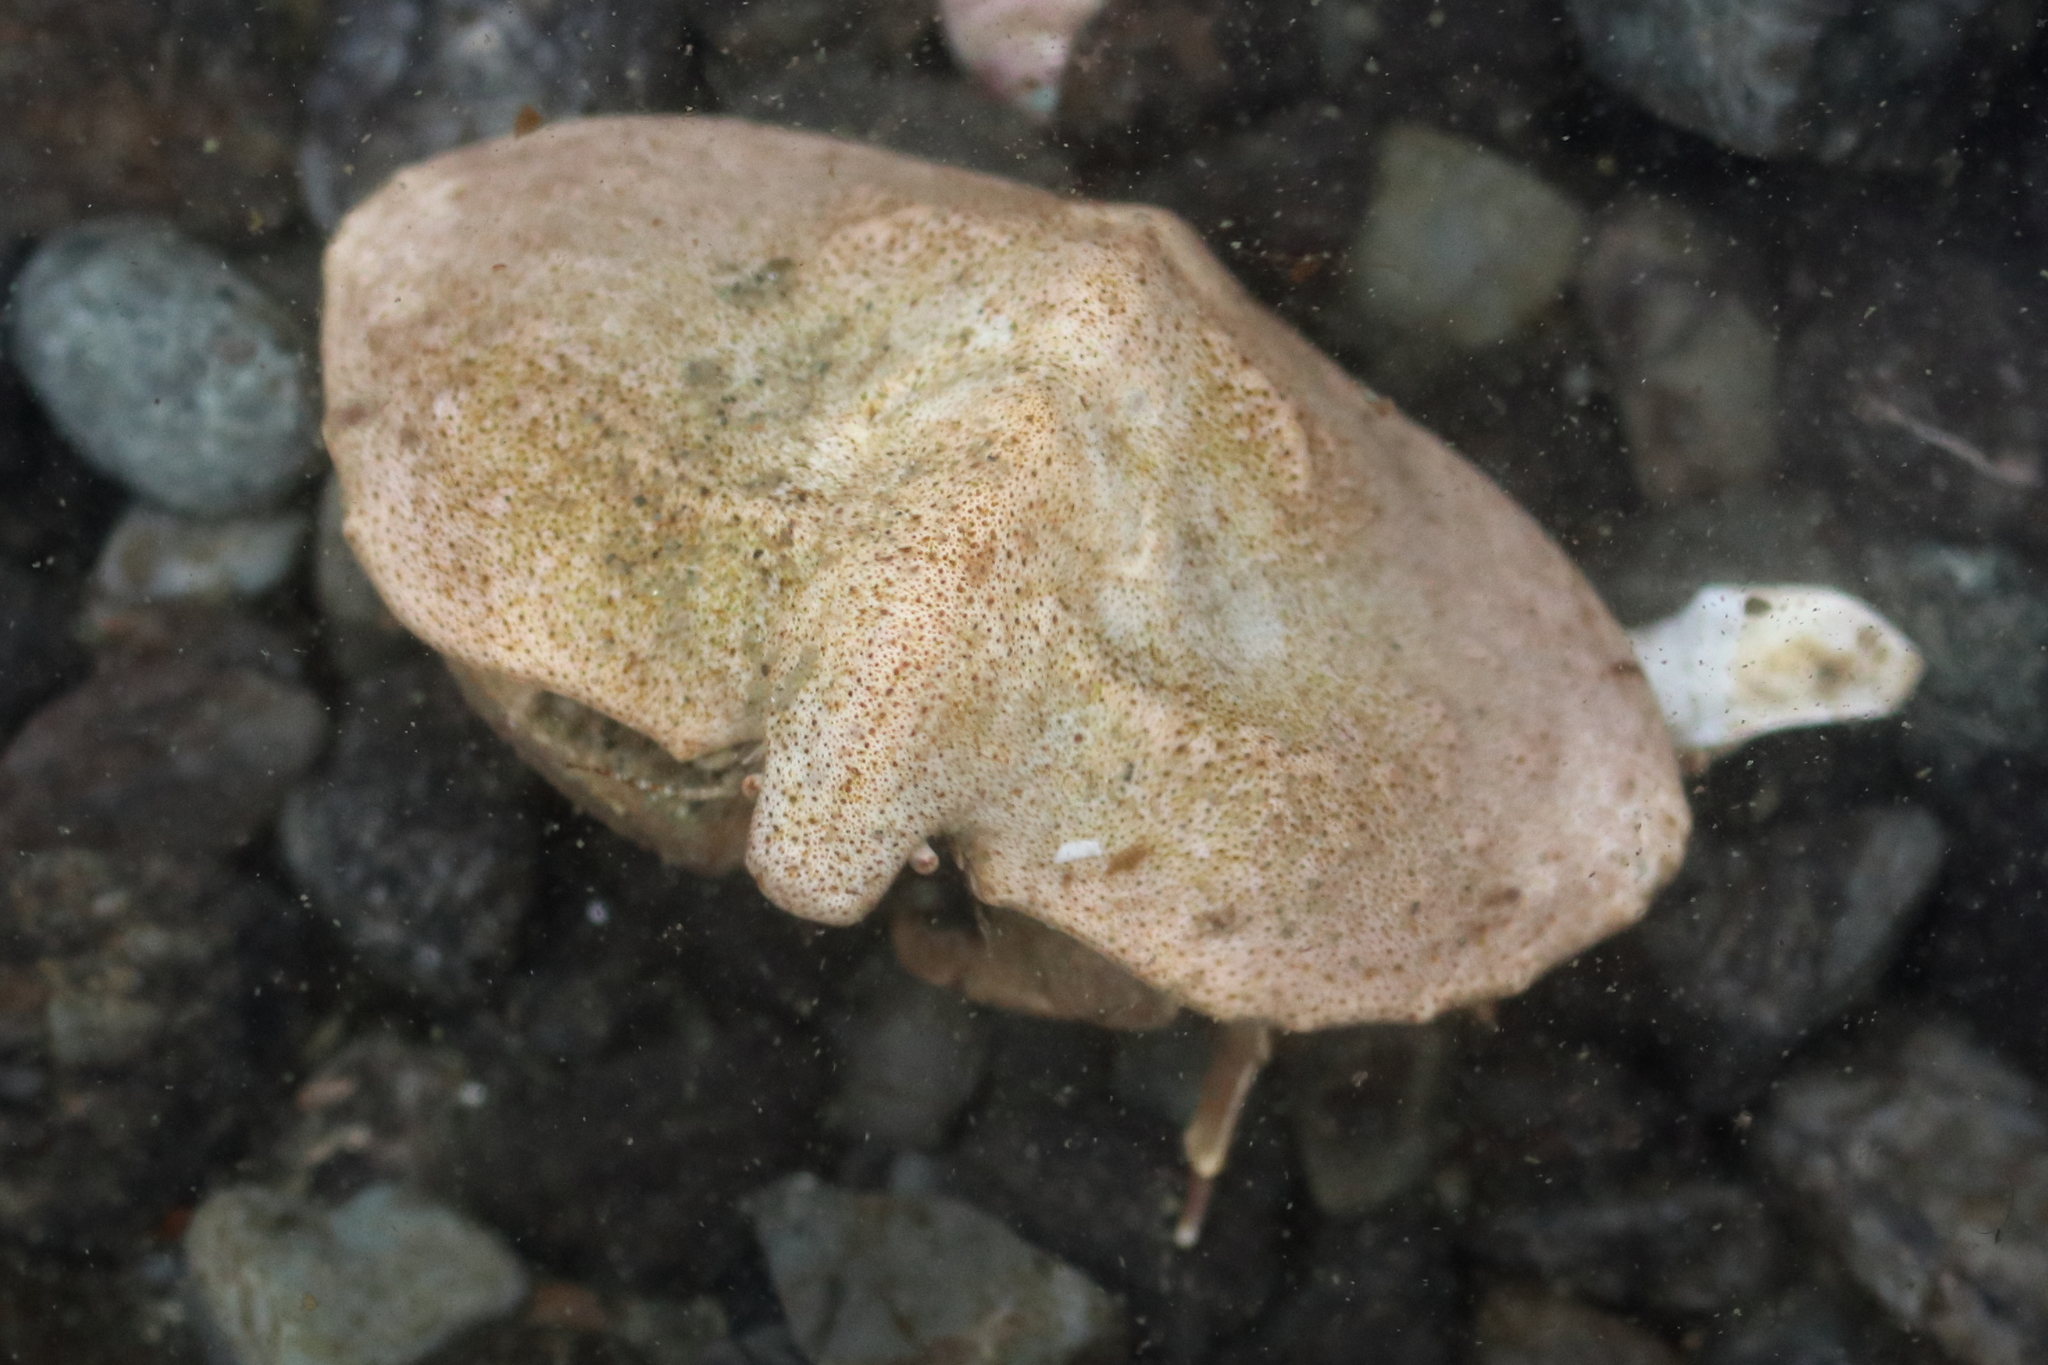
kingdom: Animalia
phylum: Arthropoda
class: Malacostraca
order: Decapoda
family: Lithodidae
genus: Cryptolithodes
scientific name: Cryptolithodes typicus
